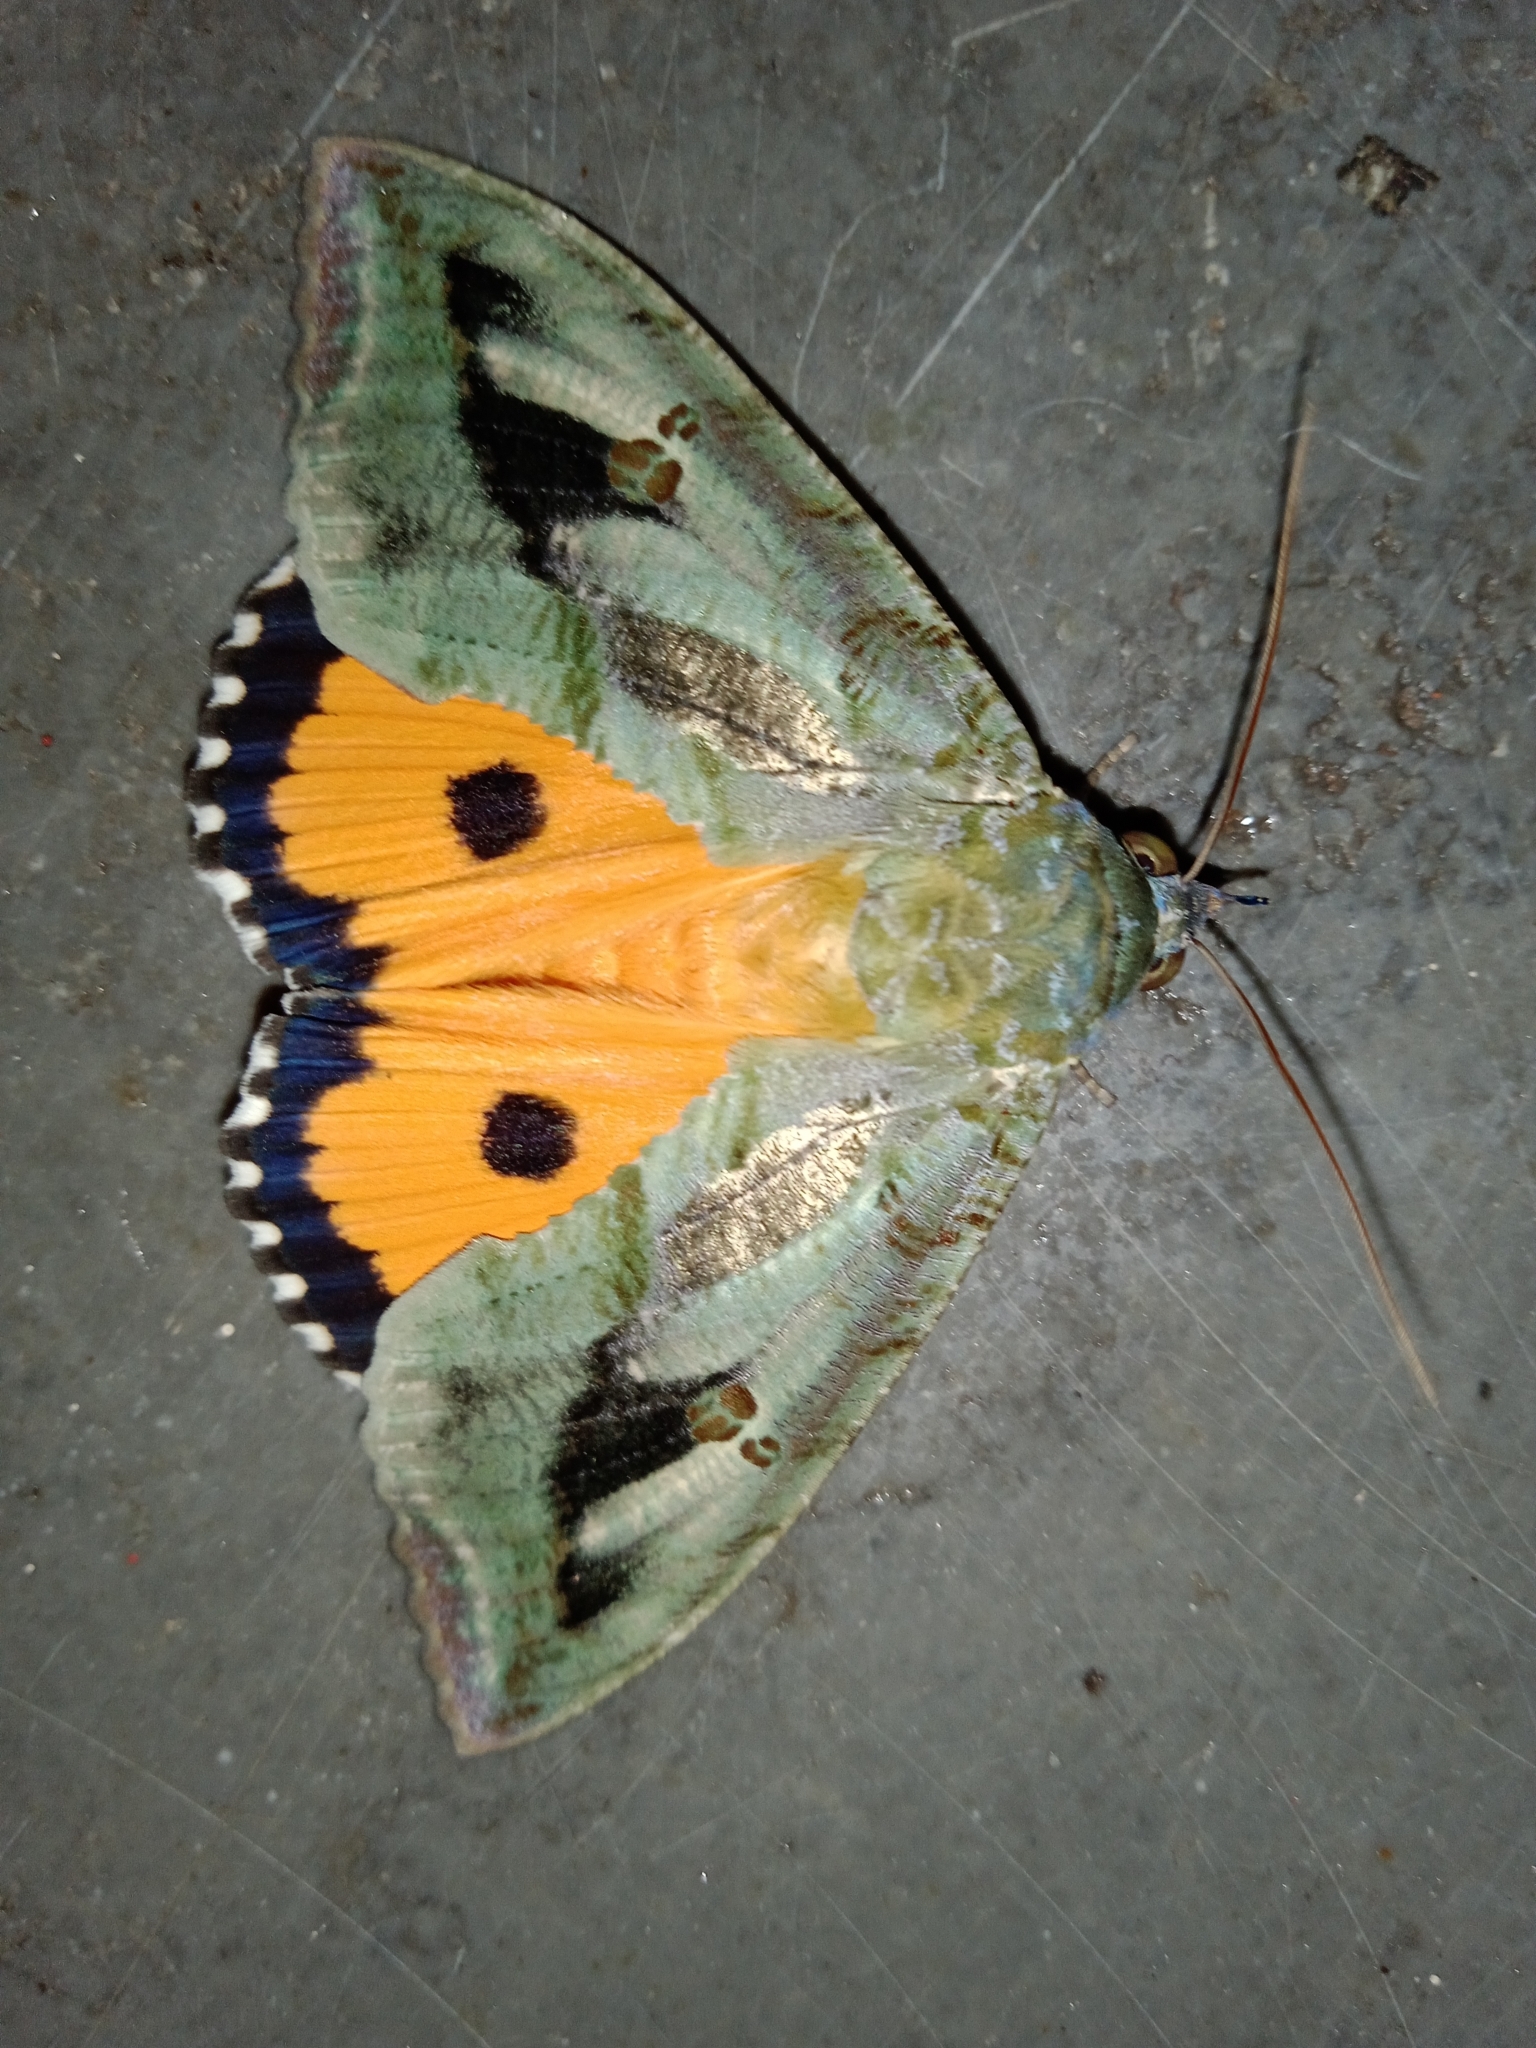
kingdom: Animalia
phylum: Arthropoda
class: Insecta
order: Lepidoptera
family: Erebidae
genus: Eudocima
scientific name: Eudocima materna
